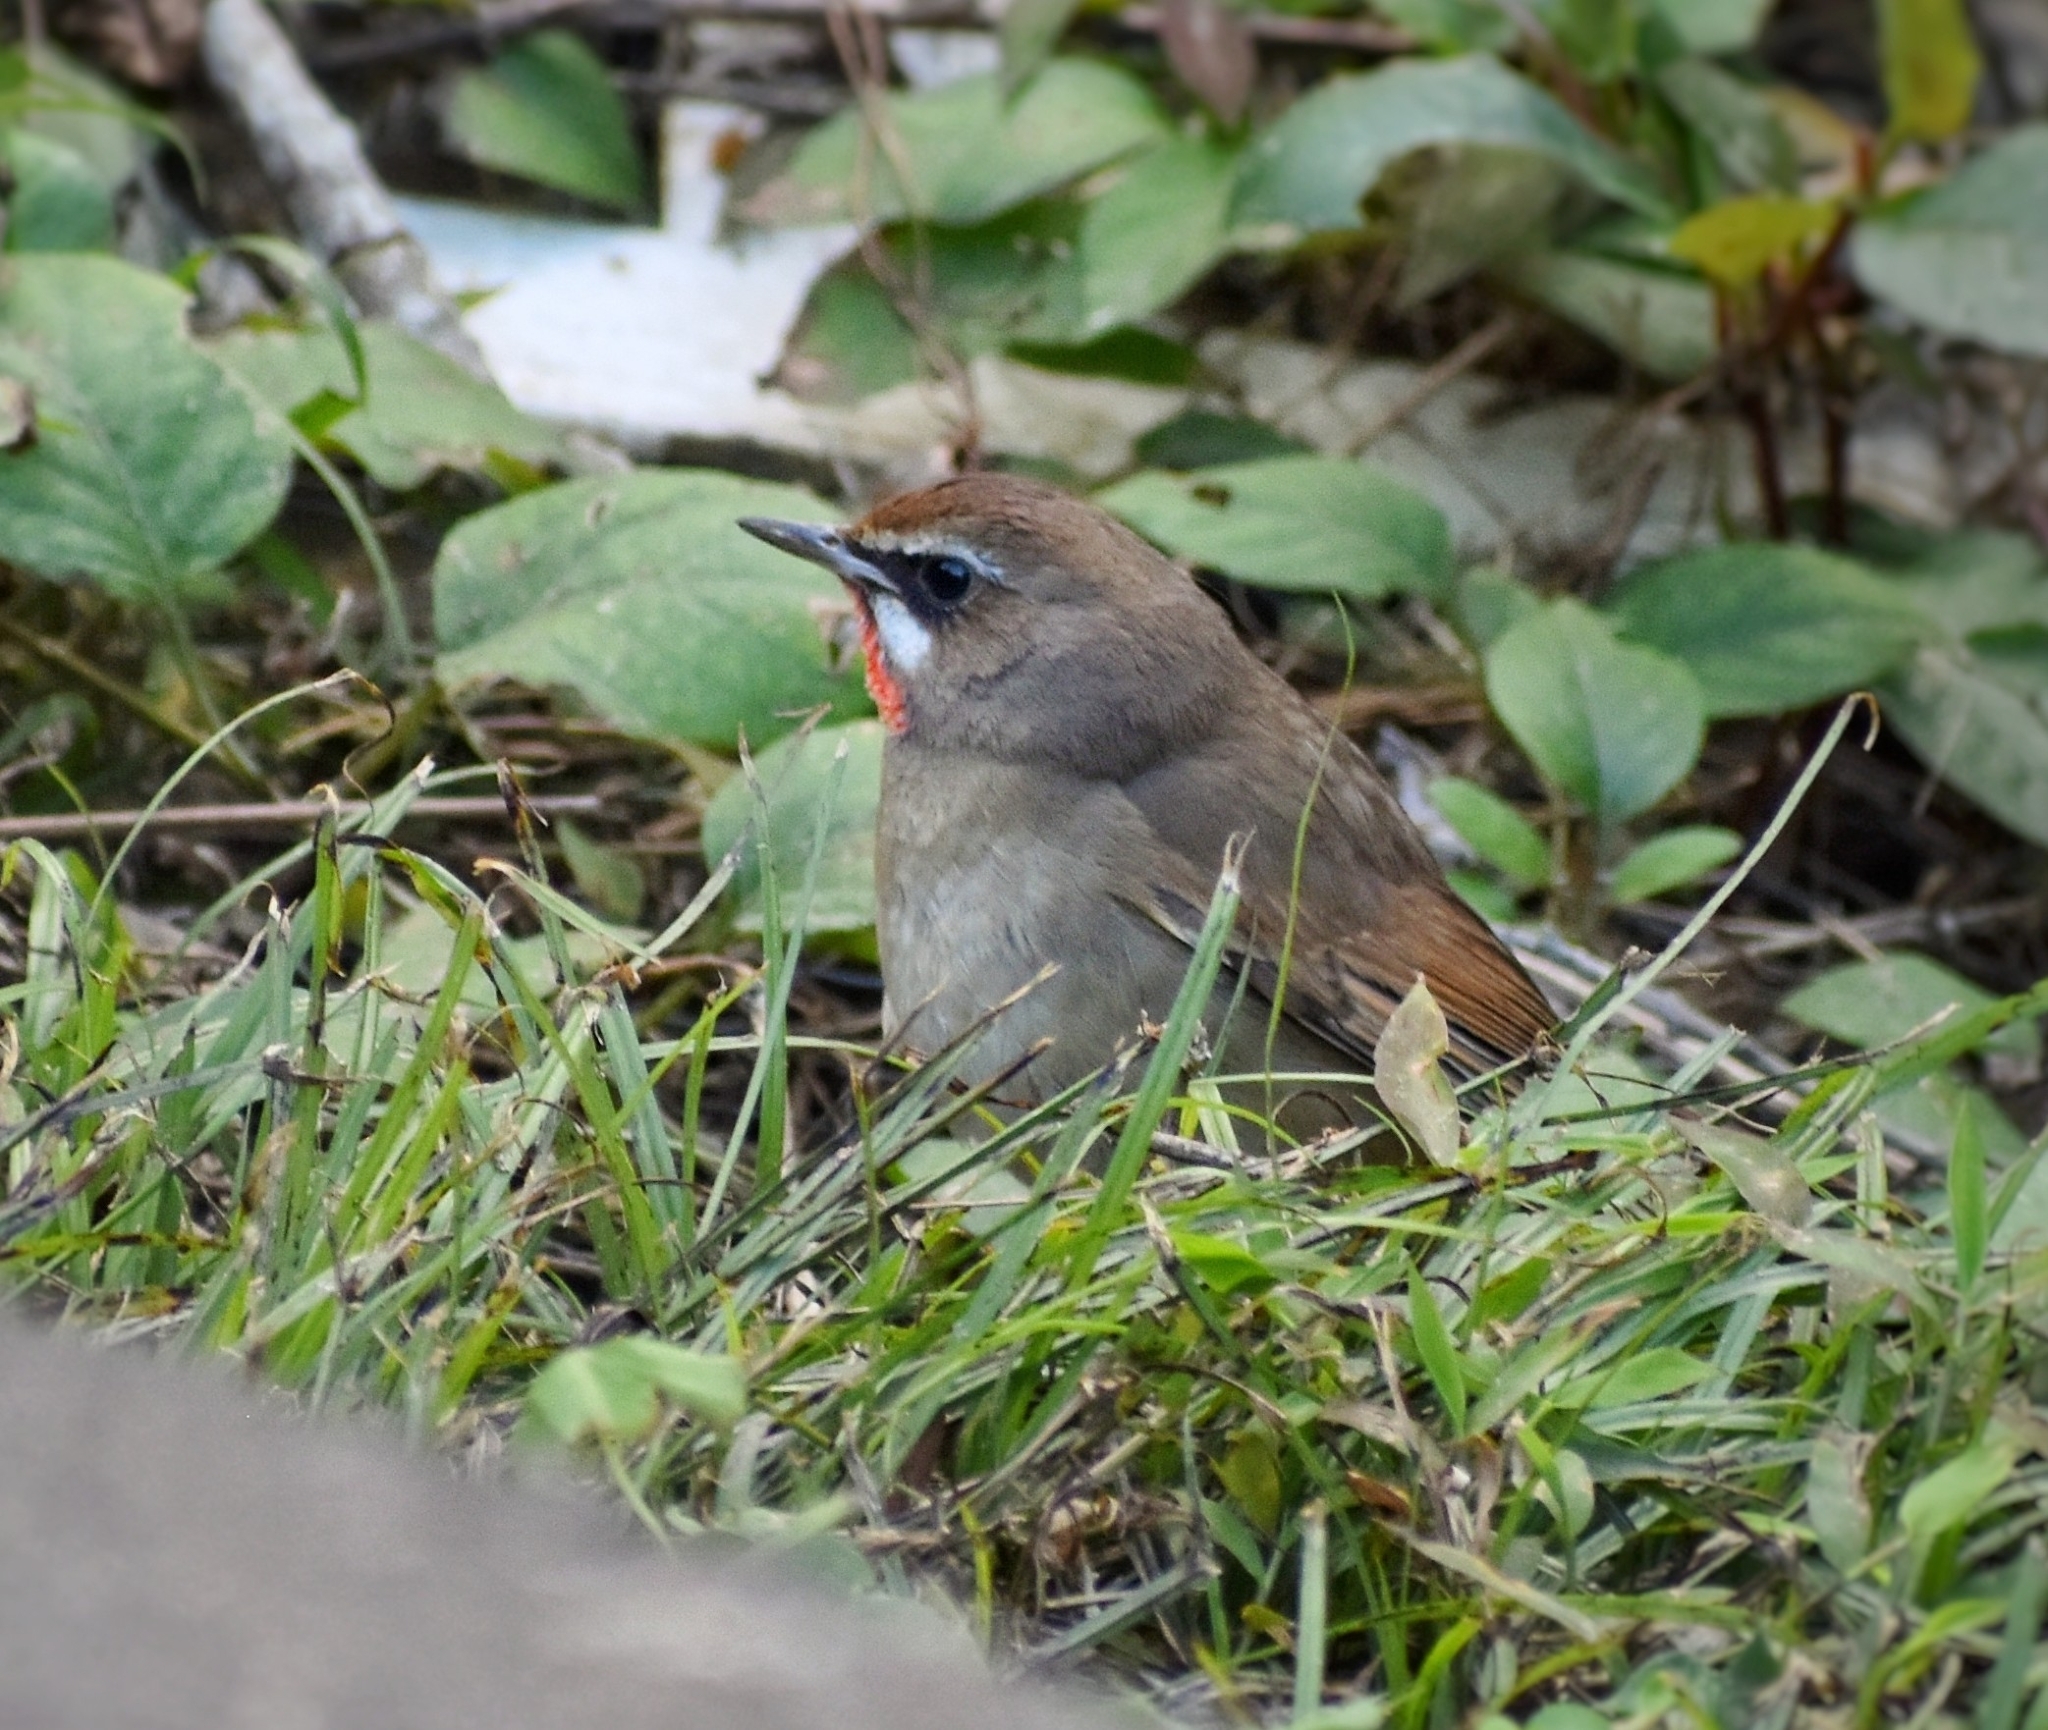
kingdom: Animalia
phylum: Chordata
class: Aves
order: Passeriformes
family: Muscicapidae
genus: Luscinia
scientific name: Luscinia calliope
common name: Siberian rubythroat
